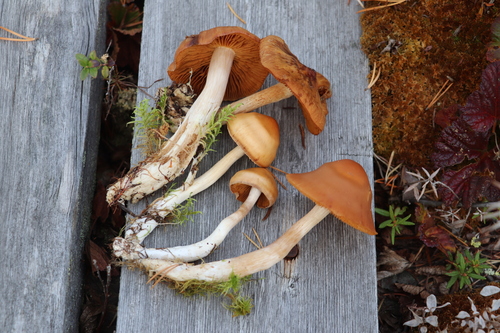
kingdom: Fungi
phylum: Basidiomycota
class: Agaricomycetes
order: Agaricales
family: Cortinariaceae
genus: Cortinarius
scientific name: Cortinarius biformis
